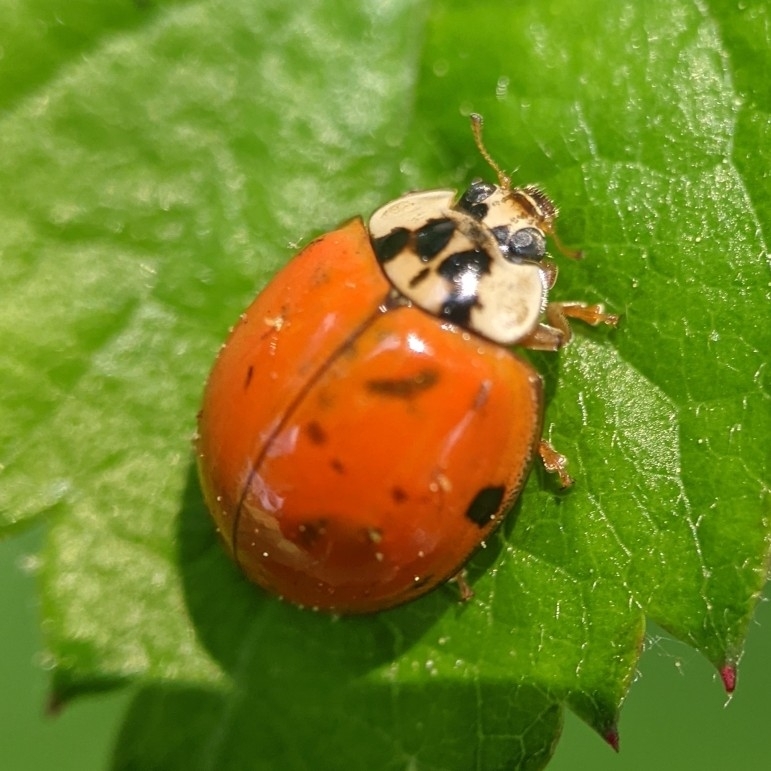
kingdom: Animalia
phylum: Arthropoda
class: Insecta
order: Coleoptera
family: Coccinellidae
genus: Harmonia
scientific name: Harmonia axyridis
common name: Harlequin ladybird
